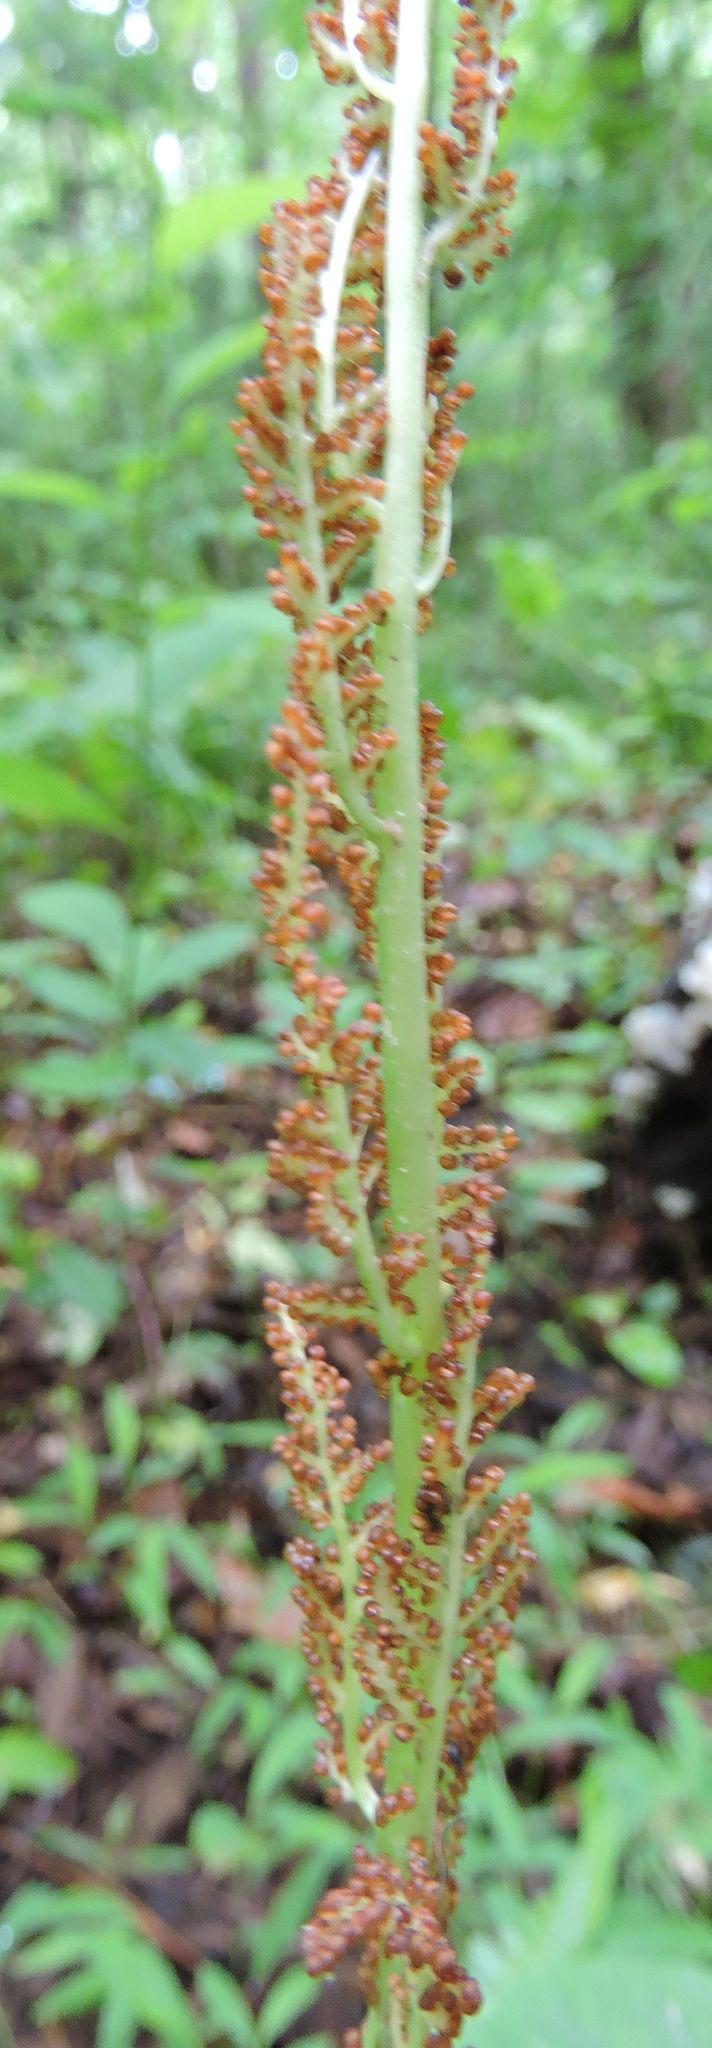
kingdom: Plantae
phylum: Tracheophyta
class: Polypodiopsida
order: Ophioglossales
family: Ophioglossaceae
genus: Botrypus
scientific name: Botrypus virginianus
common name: Common grapefern
